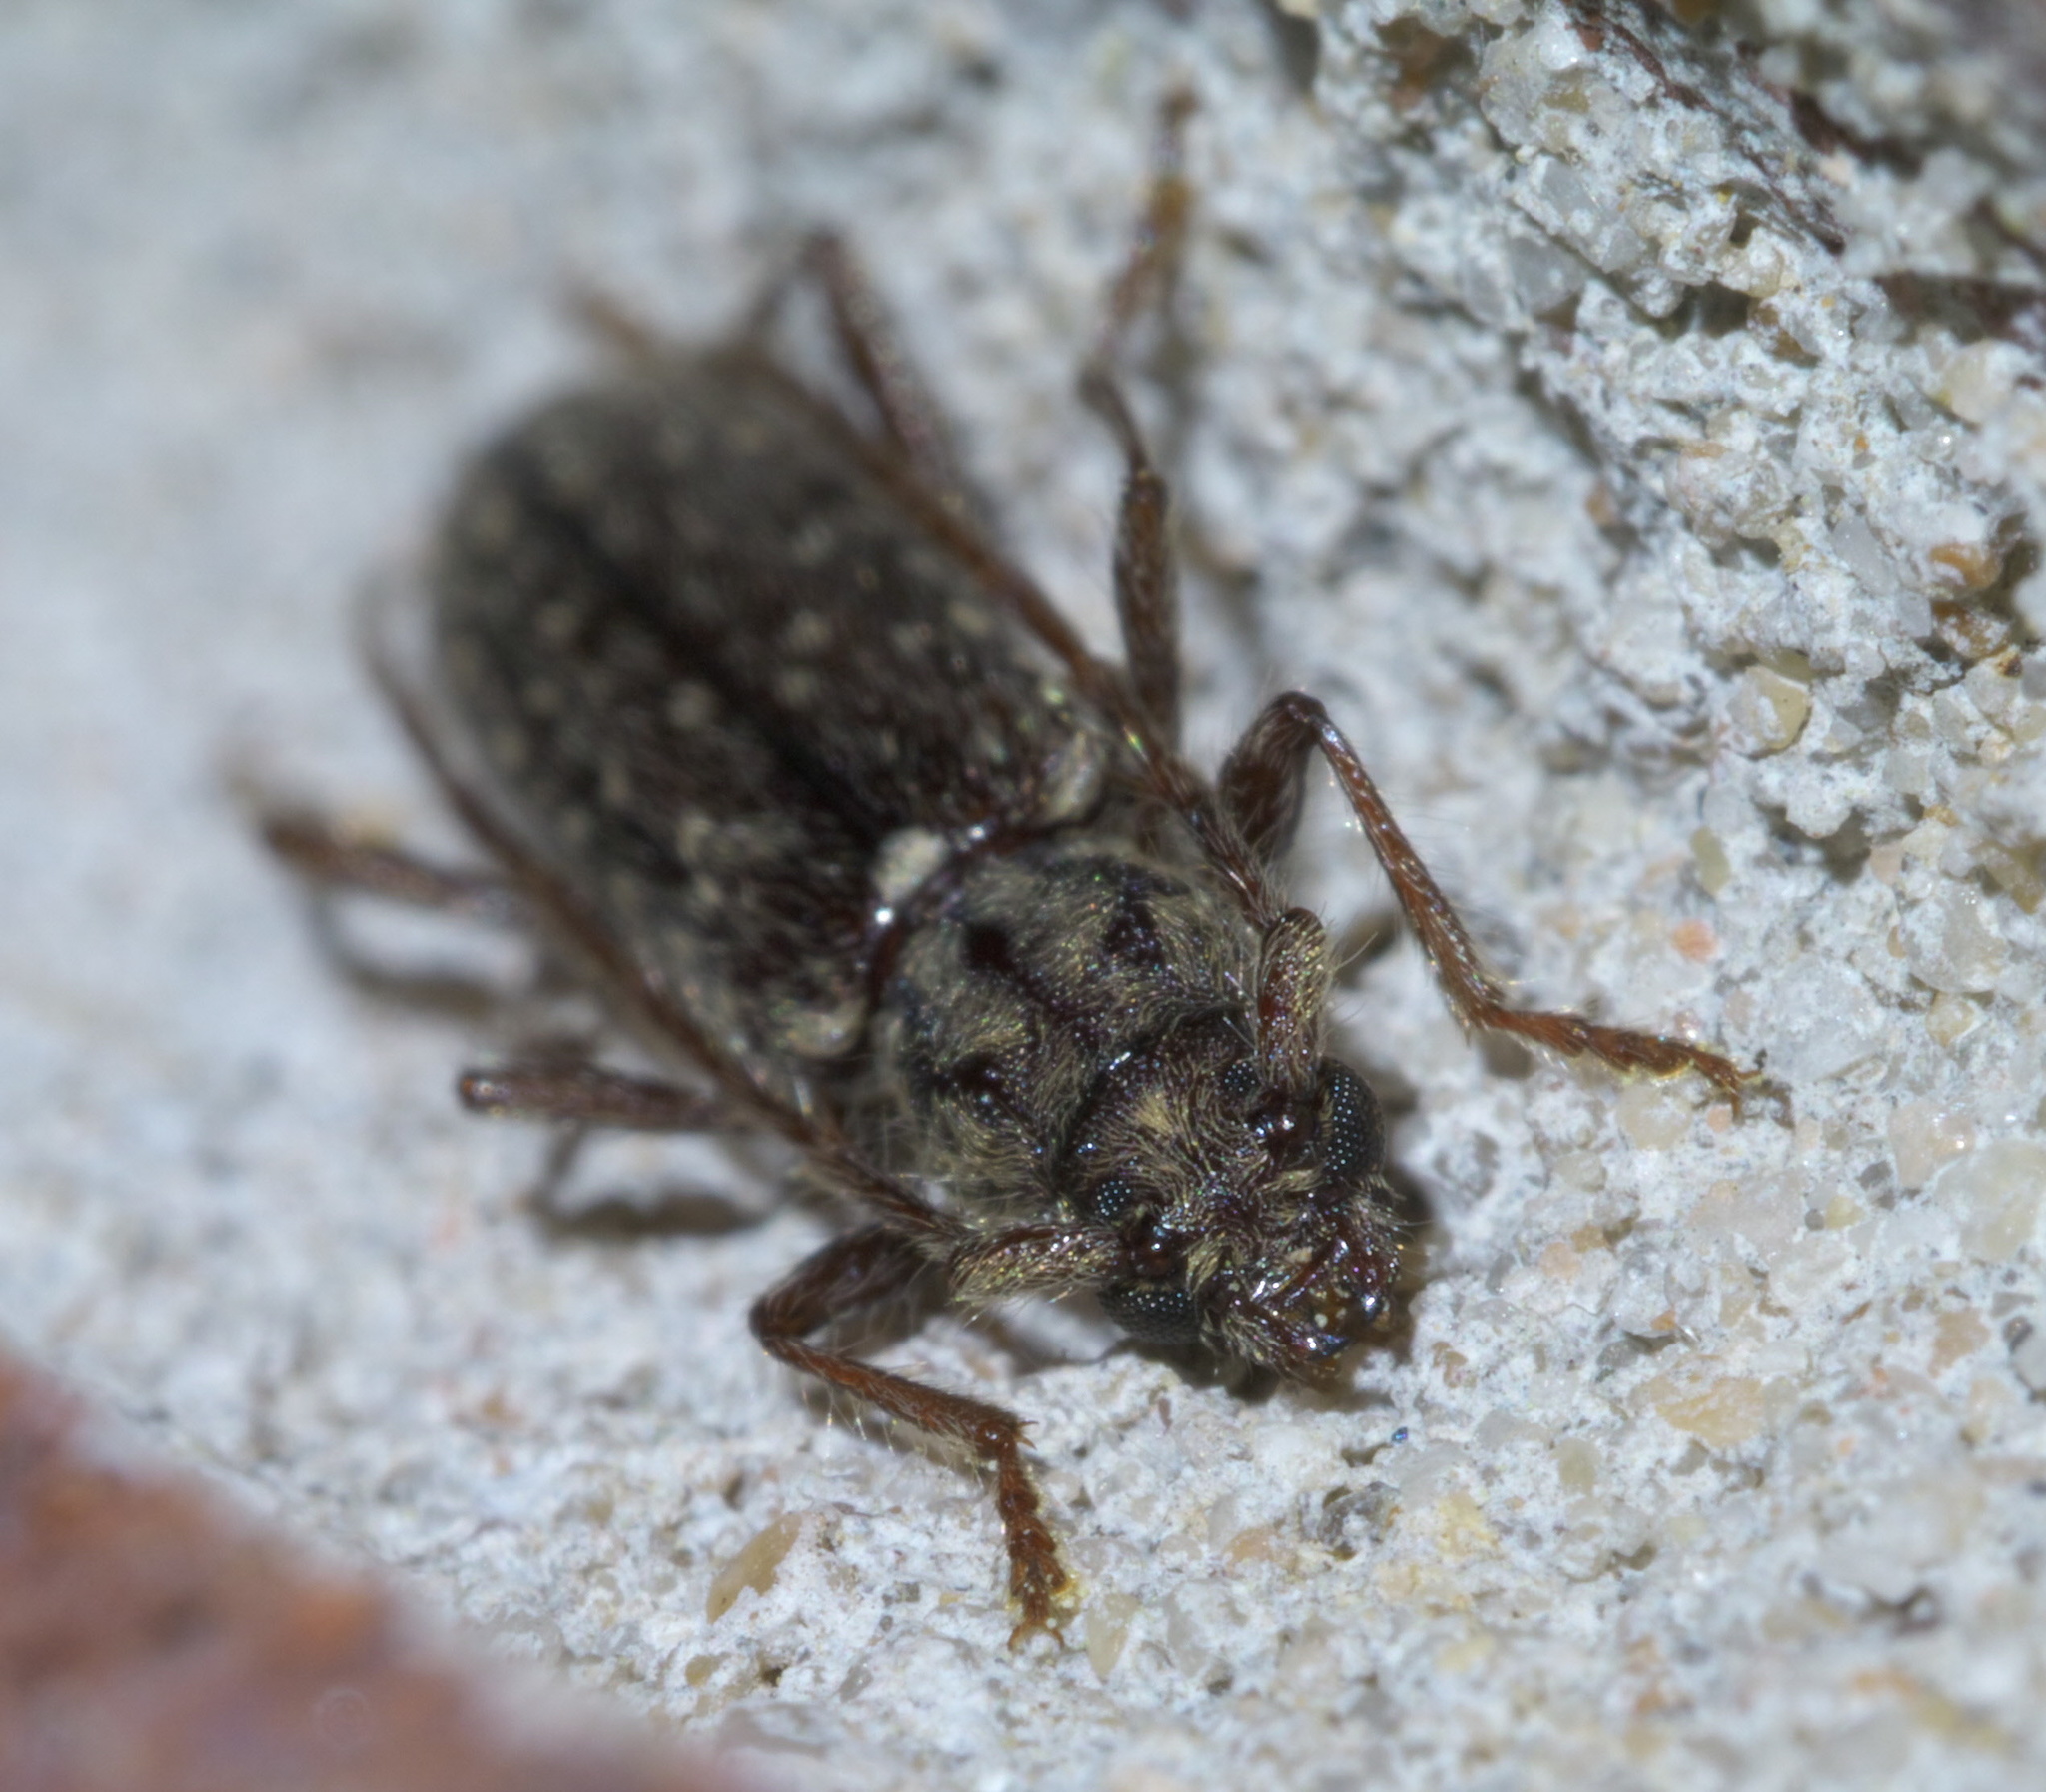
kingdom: Animalia
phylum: Arthropoda
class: Insecta
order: Coleoptera
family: Cerambycidae
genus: Anelaphus
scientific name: Anelaphus pumilus
